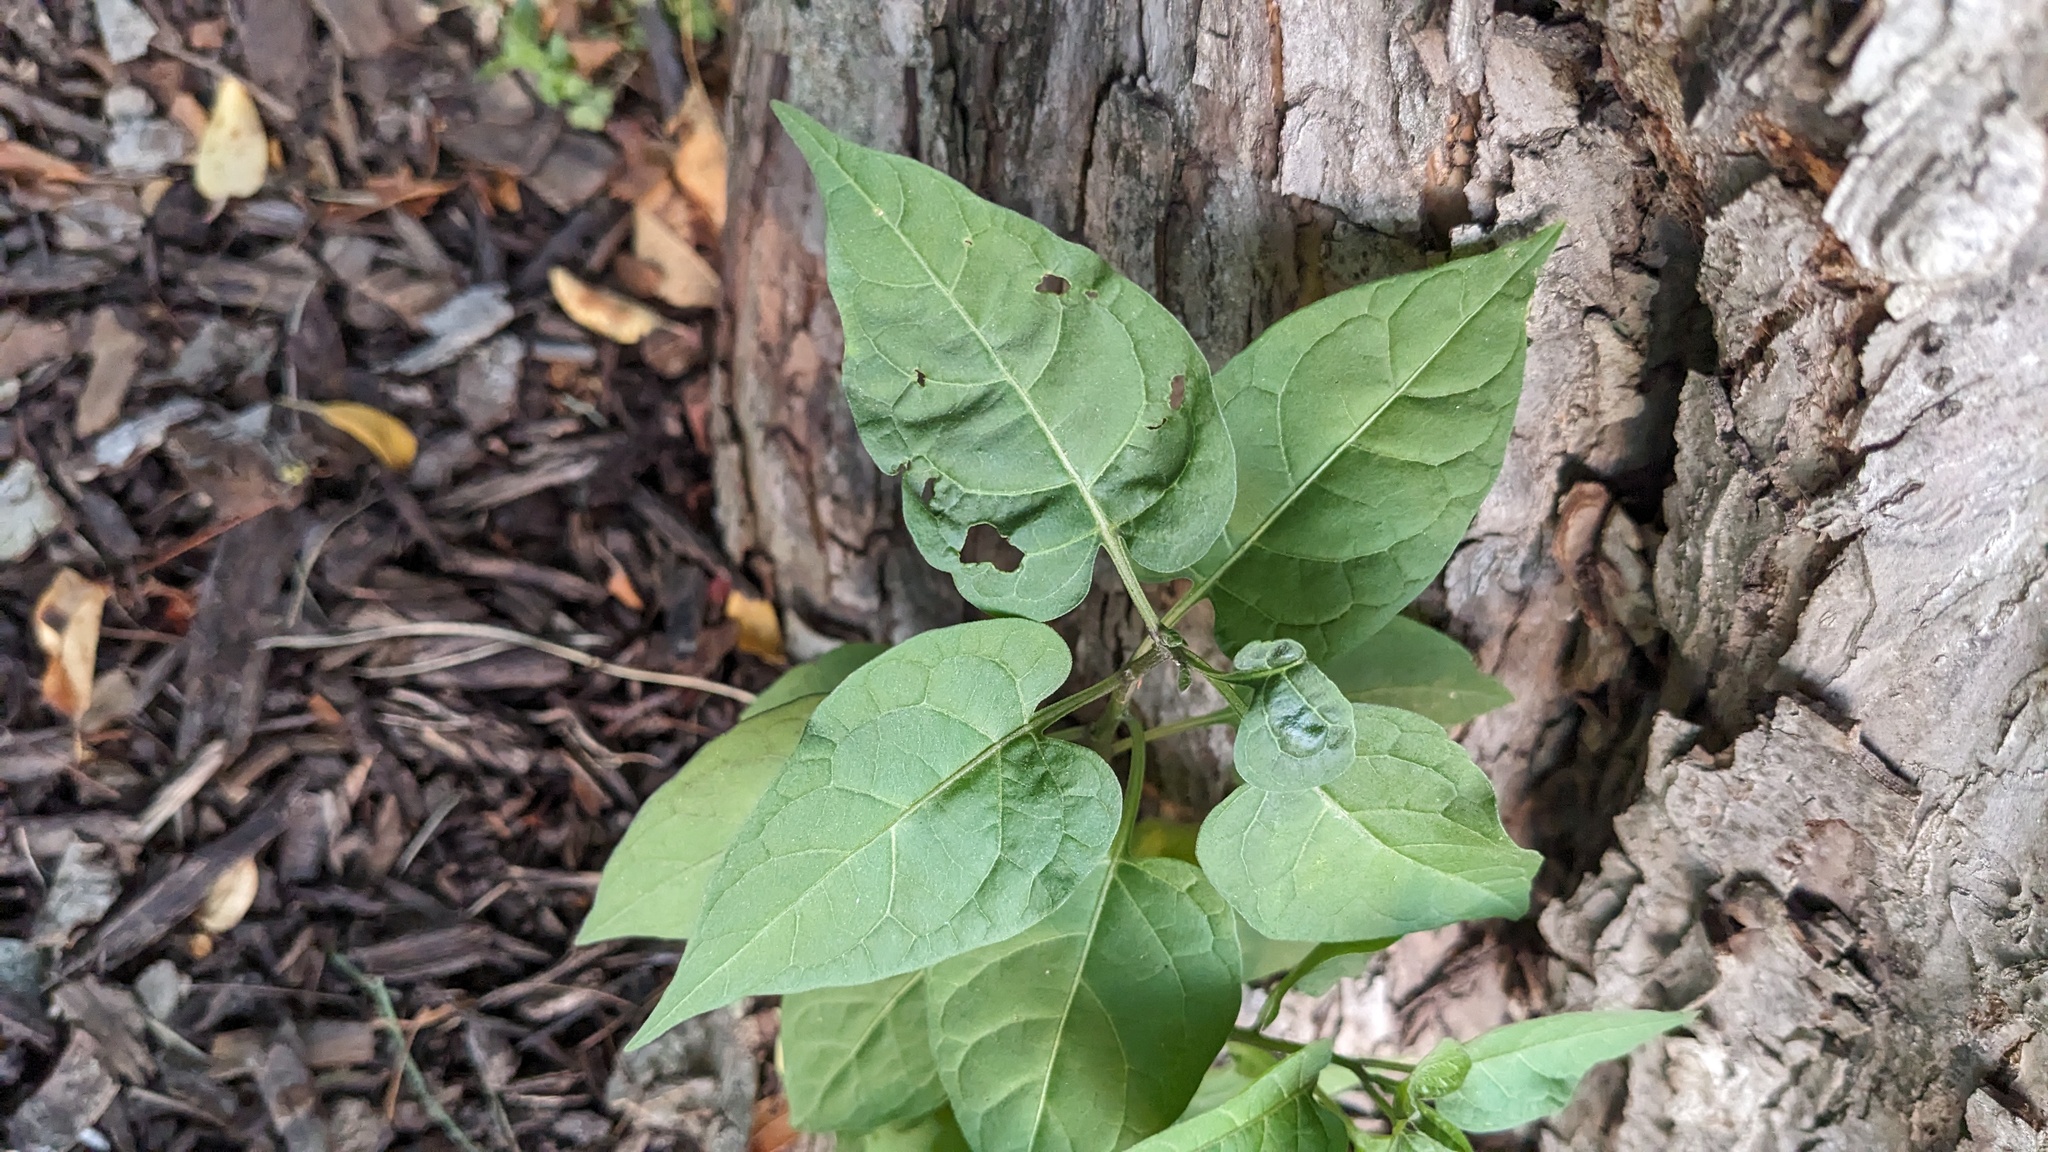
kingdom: Plantae
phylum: Tracheophyta
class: Magnoliopsida
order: Solanales
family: Solanaceae
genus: Solanum
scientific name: Solanum dulcamara
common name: Climbing nightshade
